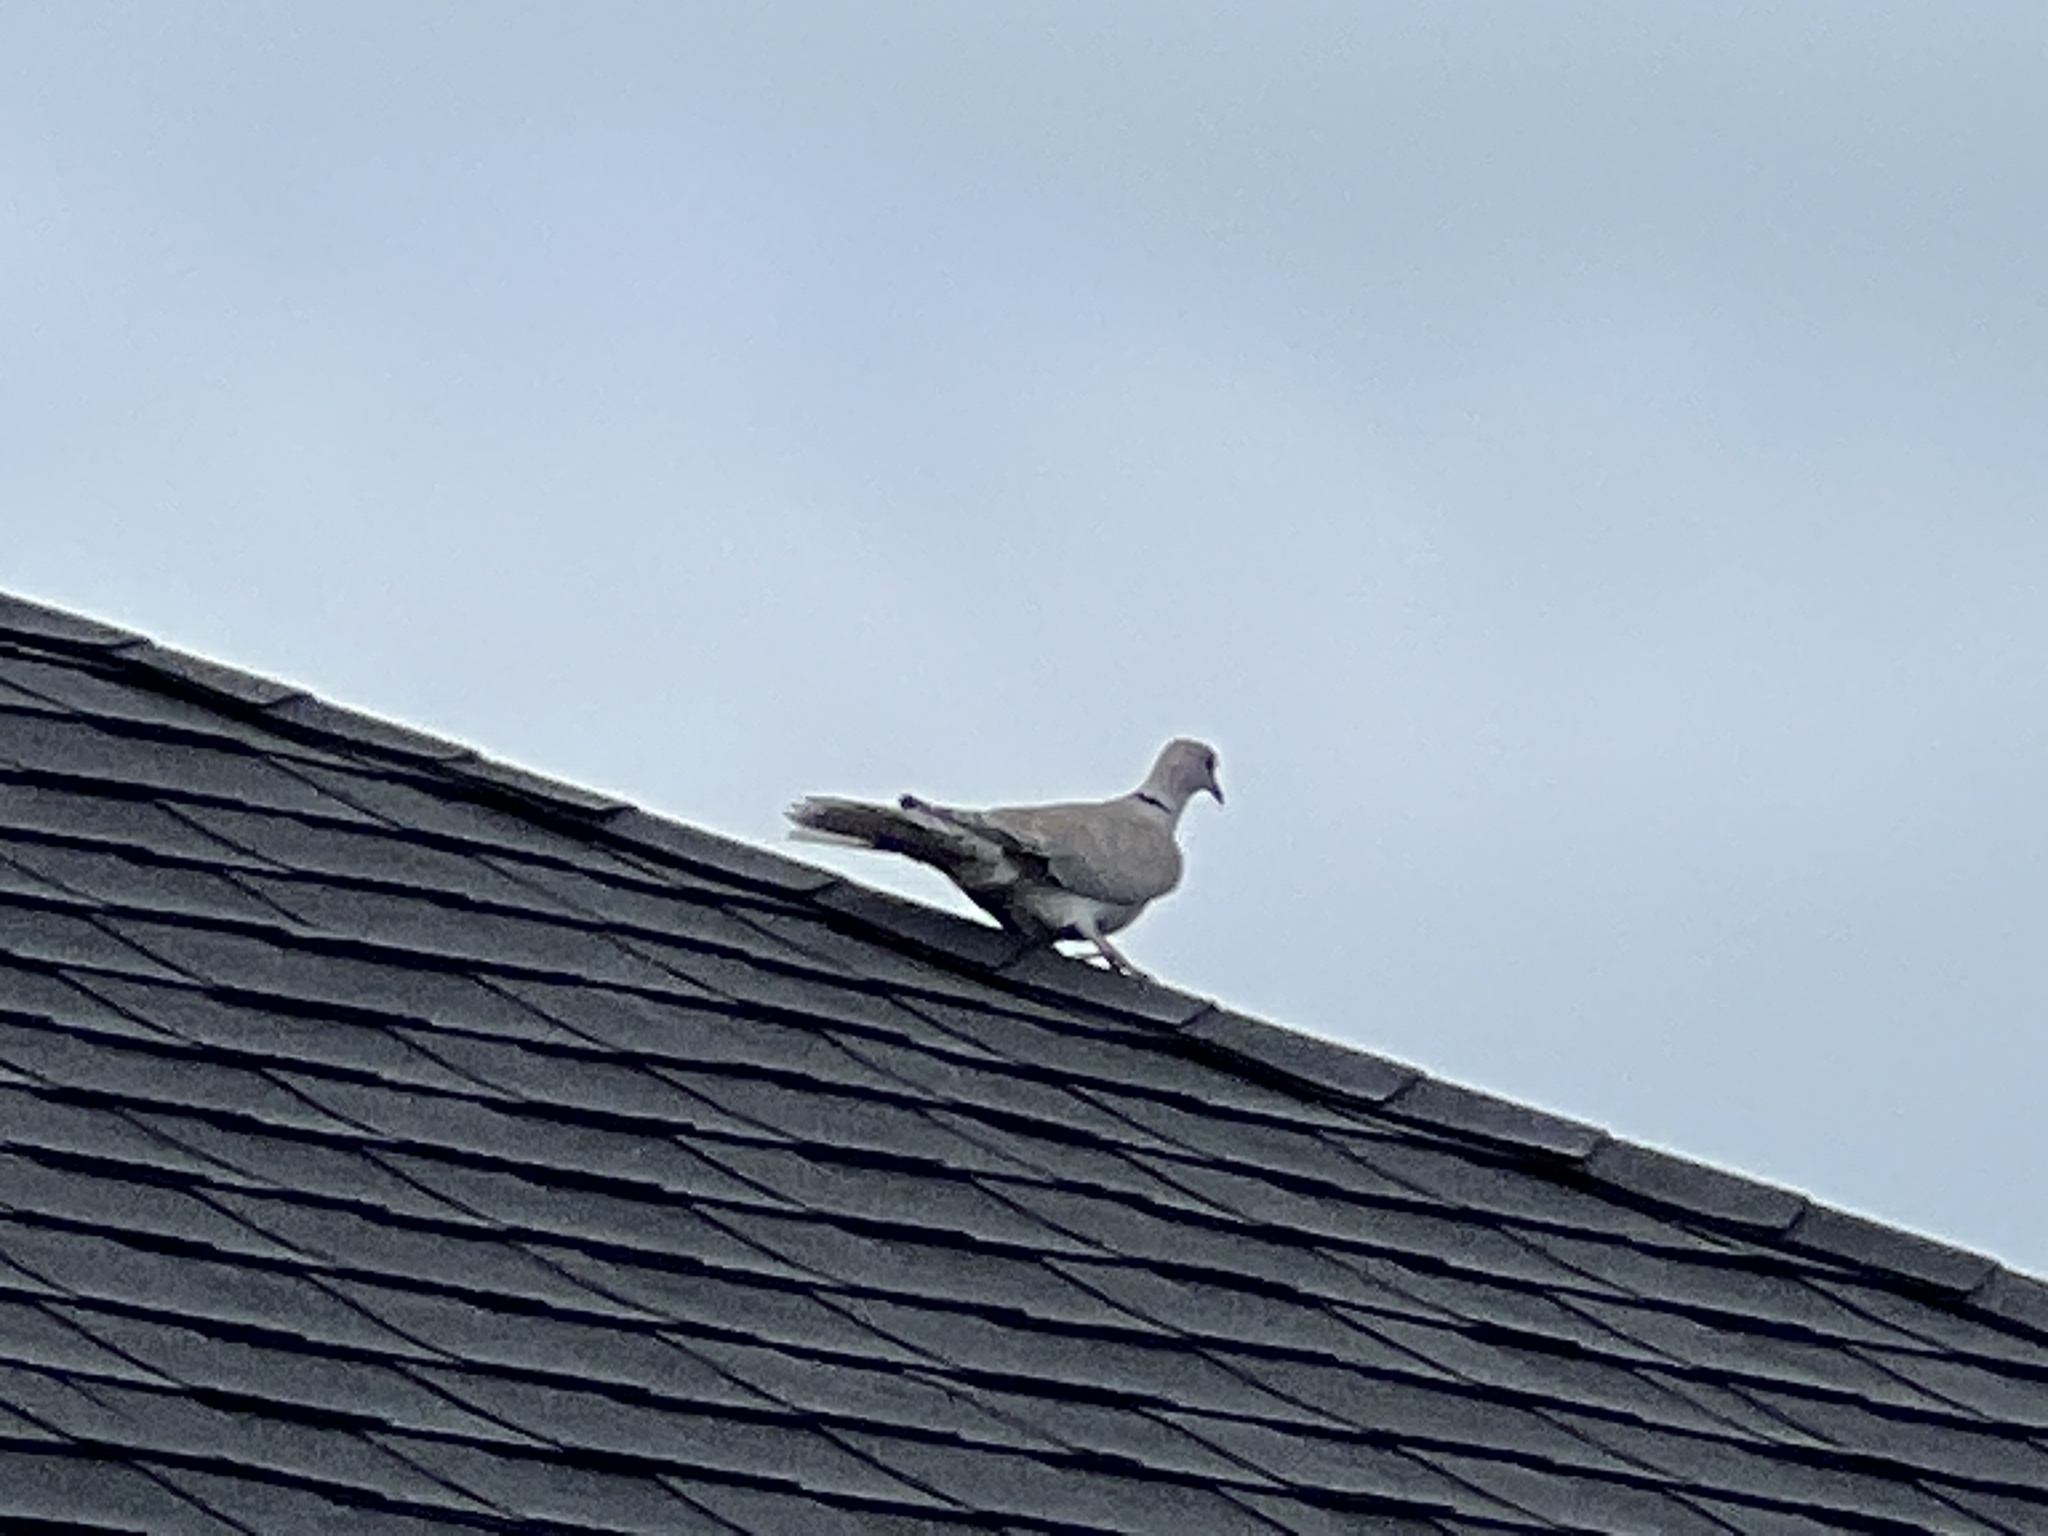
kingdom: Animalia
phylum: Chordata
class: Aves
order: Columbiformes
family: Columbidae
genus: Streptopelia
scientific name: Streptopelia decaocto
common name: Eurasian collared dove
